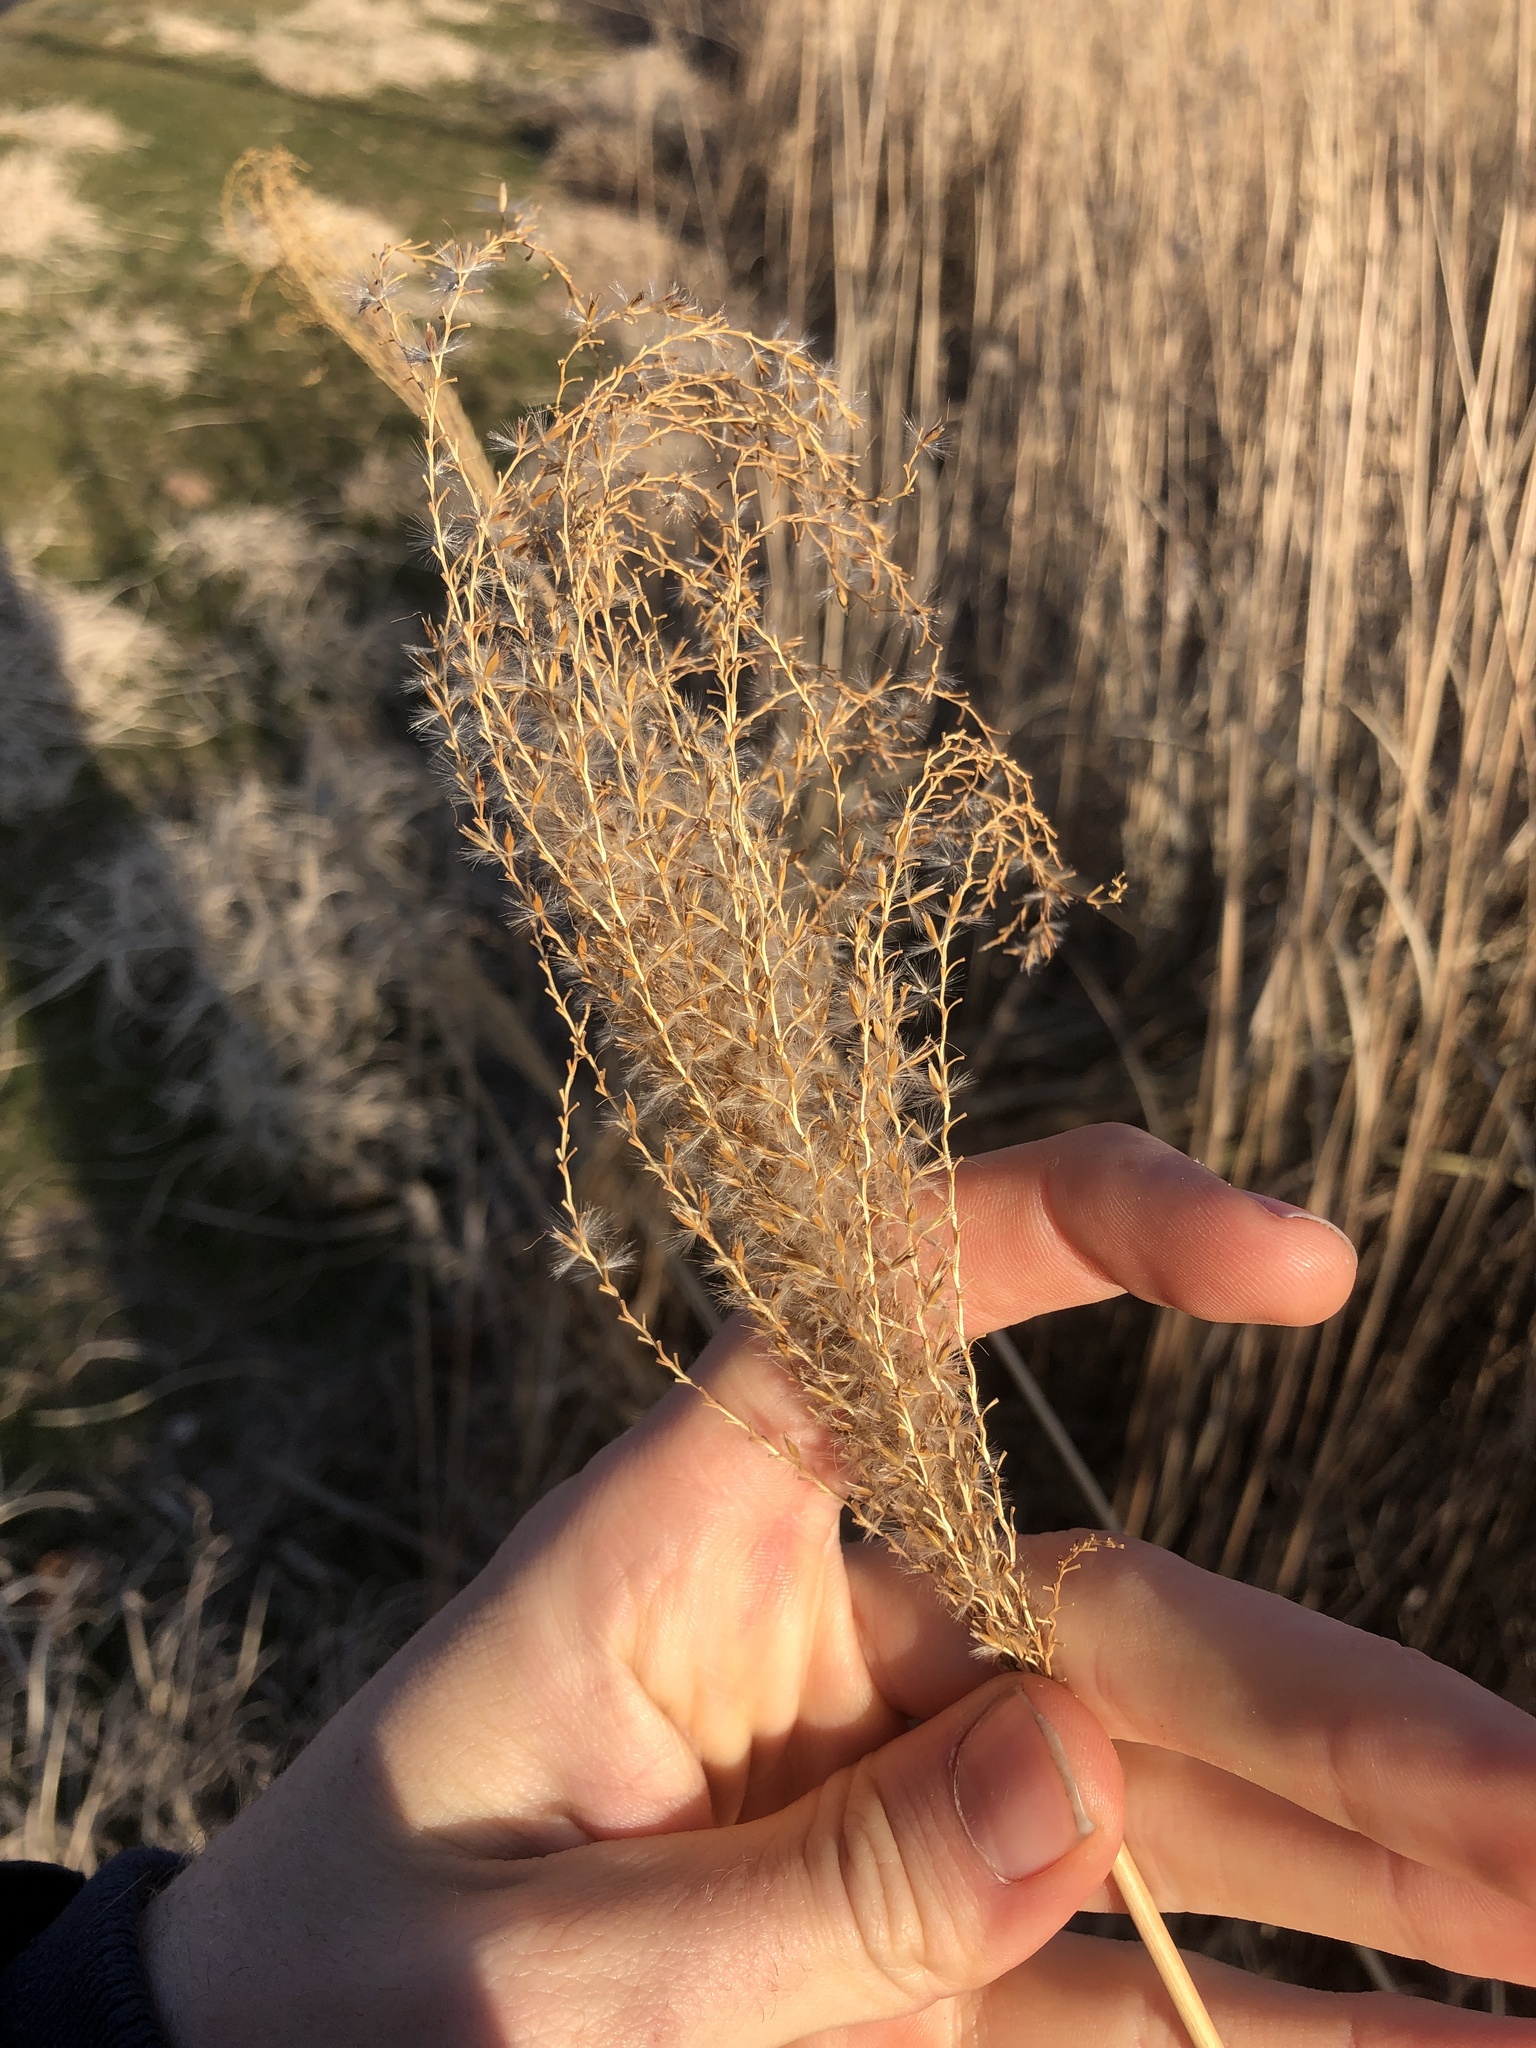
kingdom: Plantae
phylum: Tracheophyta
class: Liliopsida
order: Poales
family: Poaceae
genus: Miscanthus
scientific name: Miscanthus sinensis
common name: Chinese silvergrass
